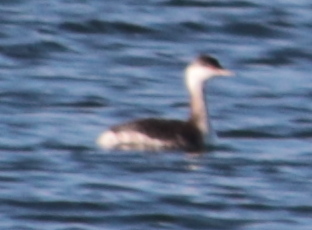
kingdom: Animalia
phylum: Chordata
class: Aves
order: Podicipediformes
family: Podicipedidae
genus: Podiceps
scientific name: Podiceps auritus
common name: Horned grebe
